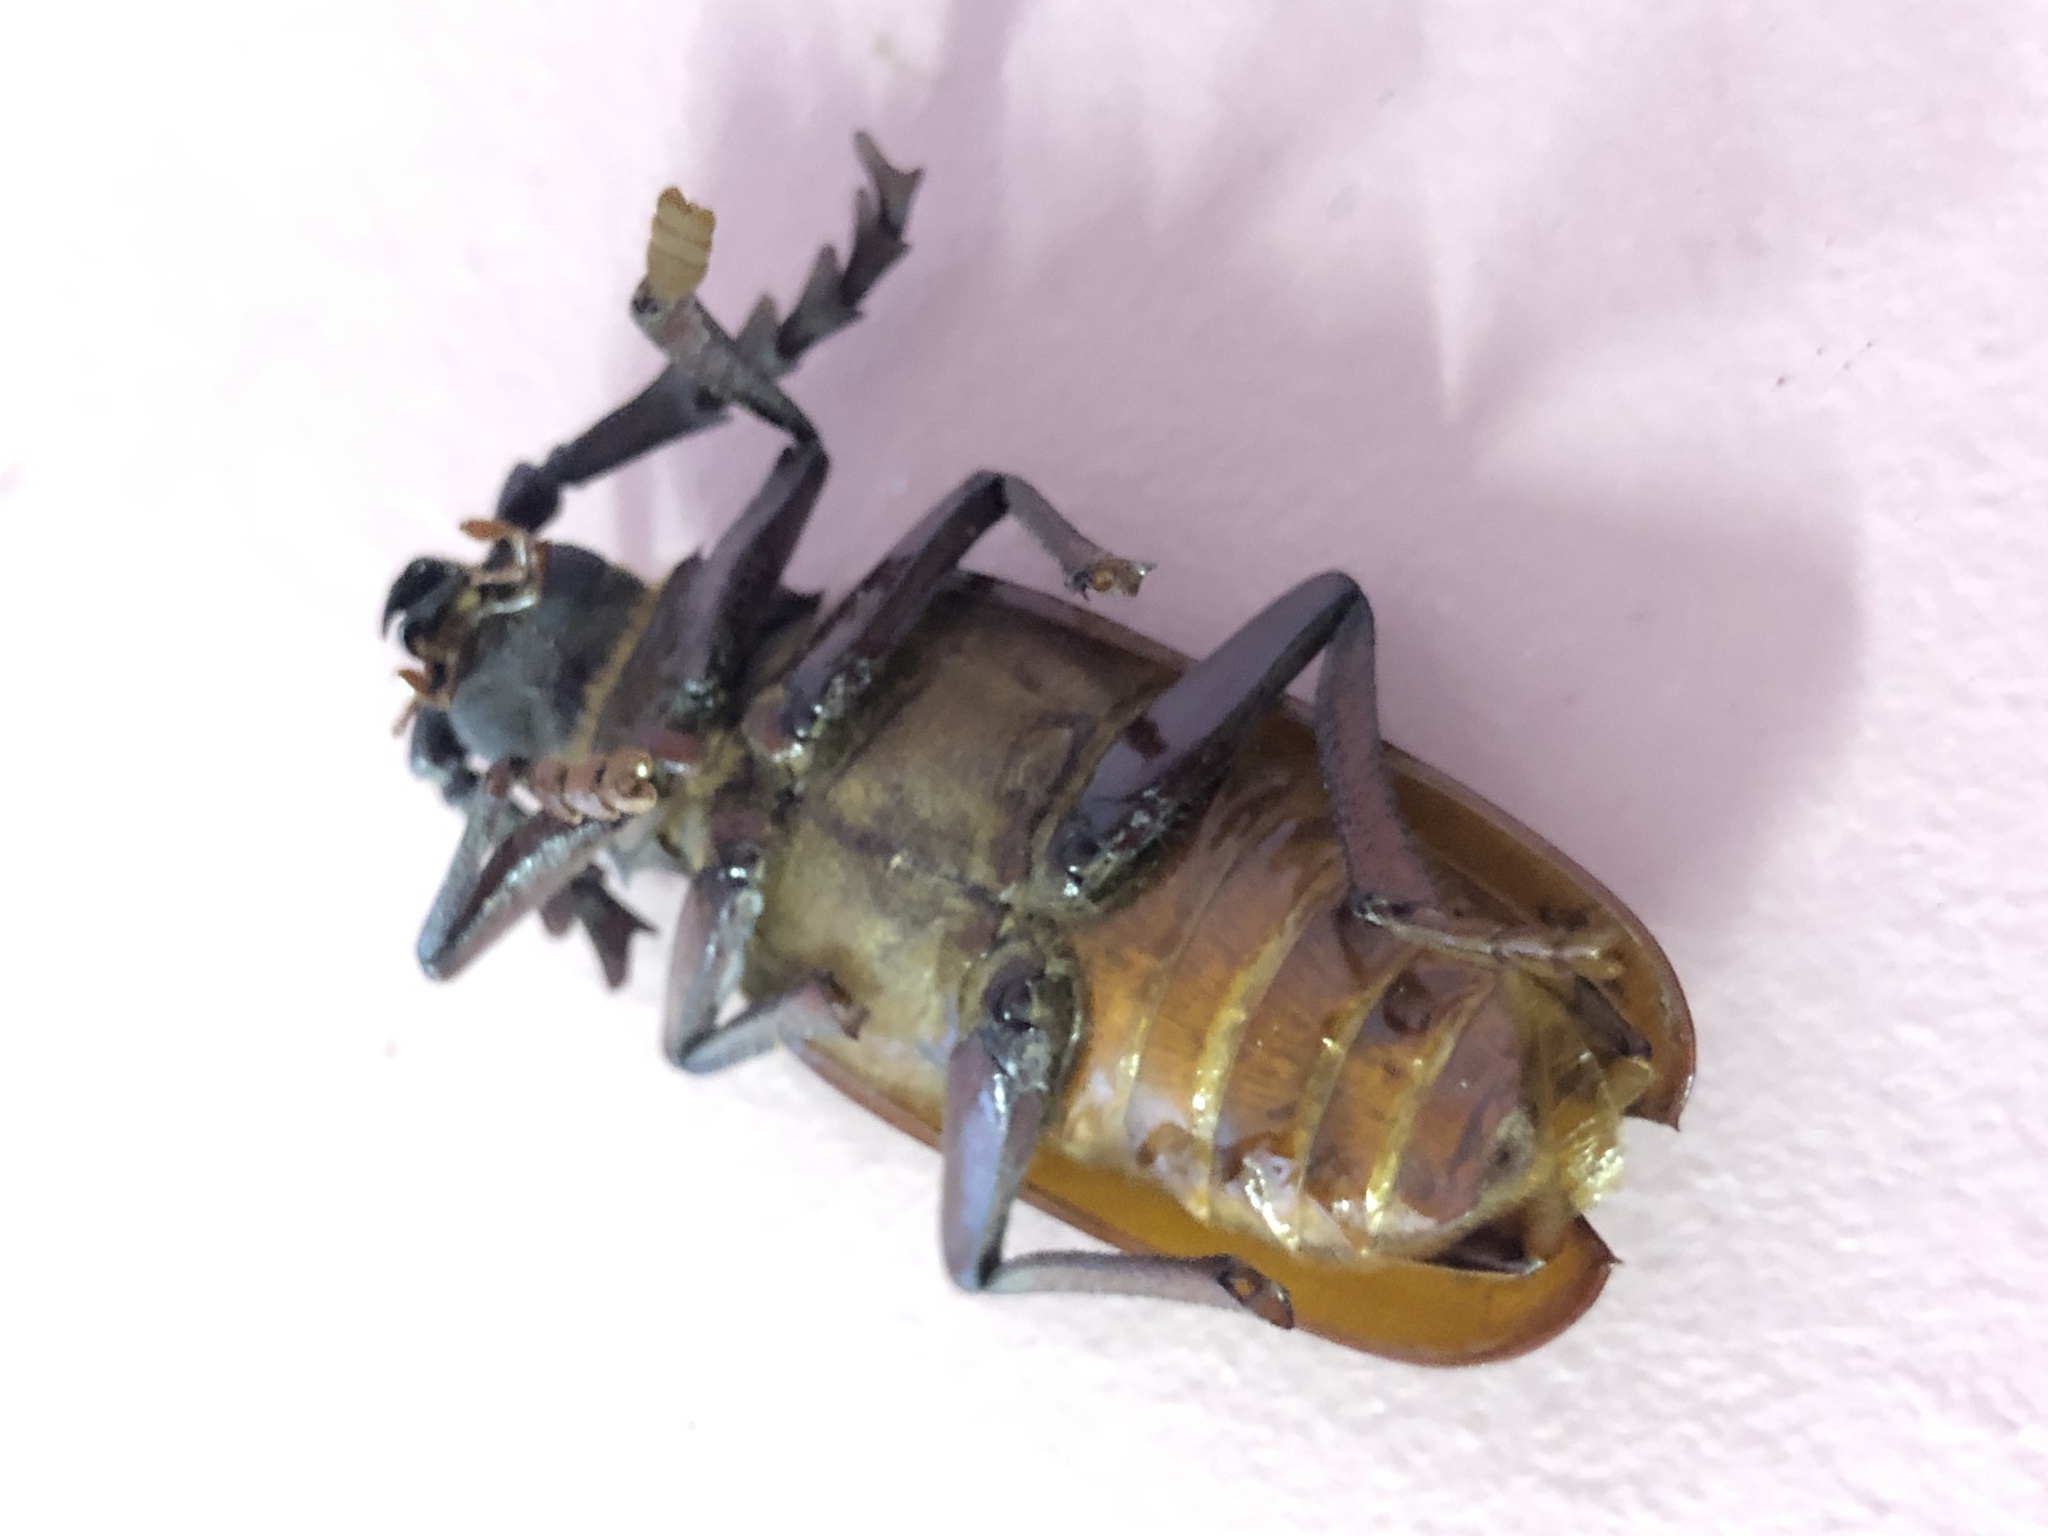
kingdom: Animalia
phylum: Arthropoda
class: Insecta
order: Coleoptera
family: Cerambycidae
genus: Prionus
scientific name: Prionus californicus
